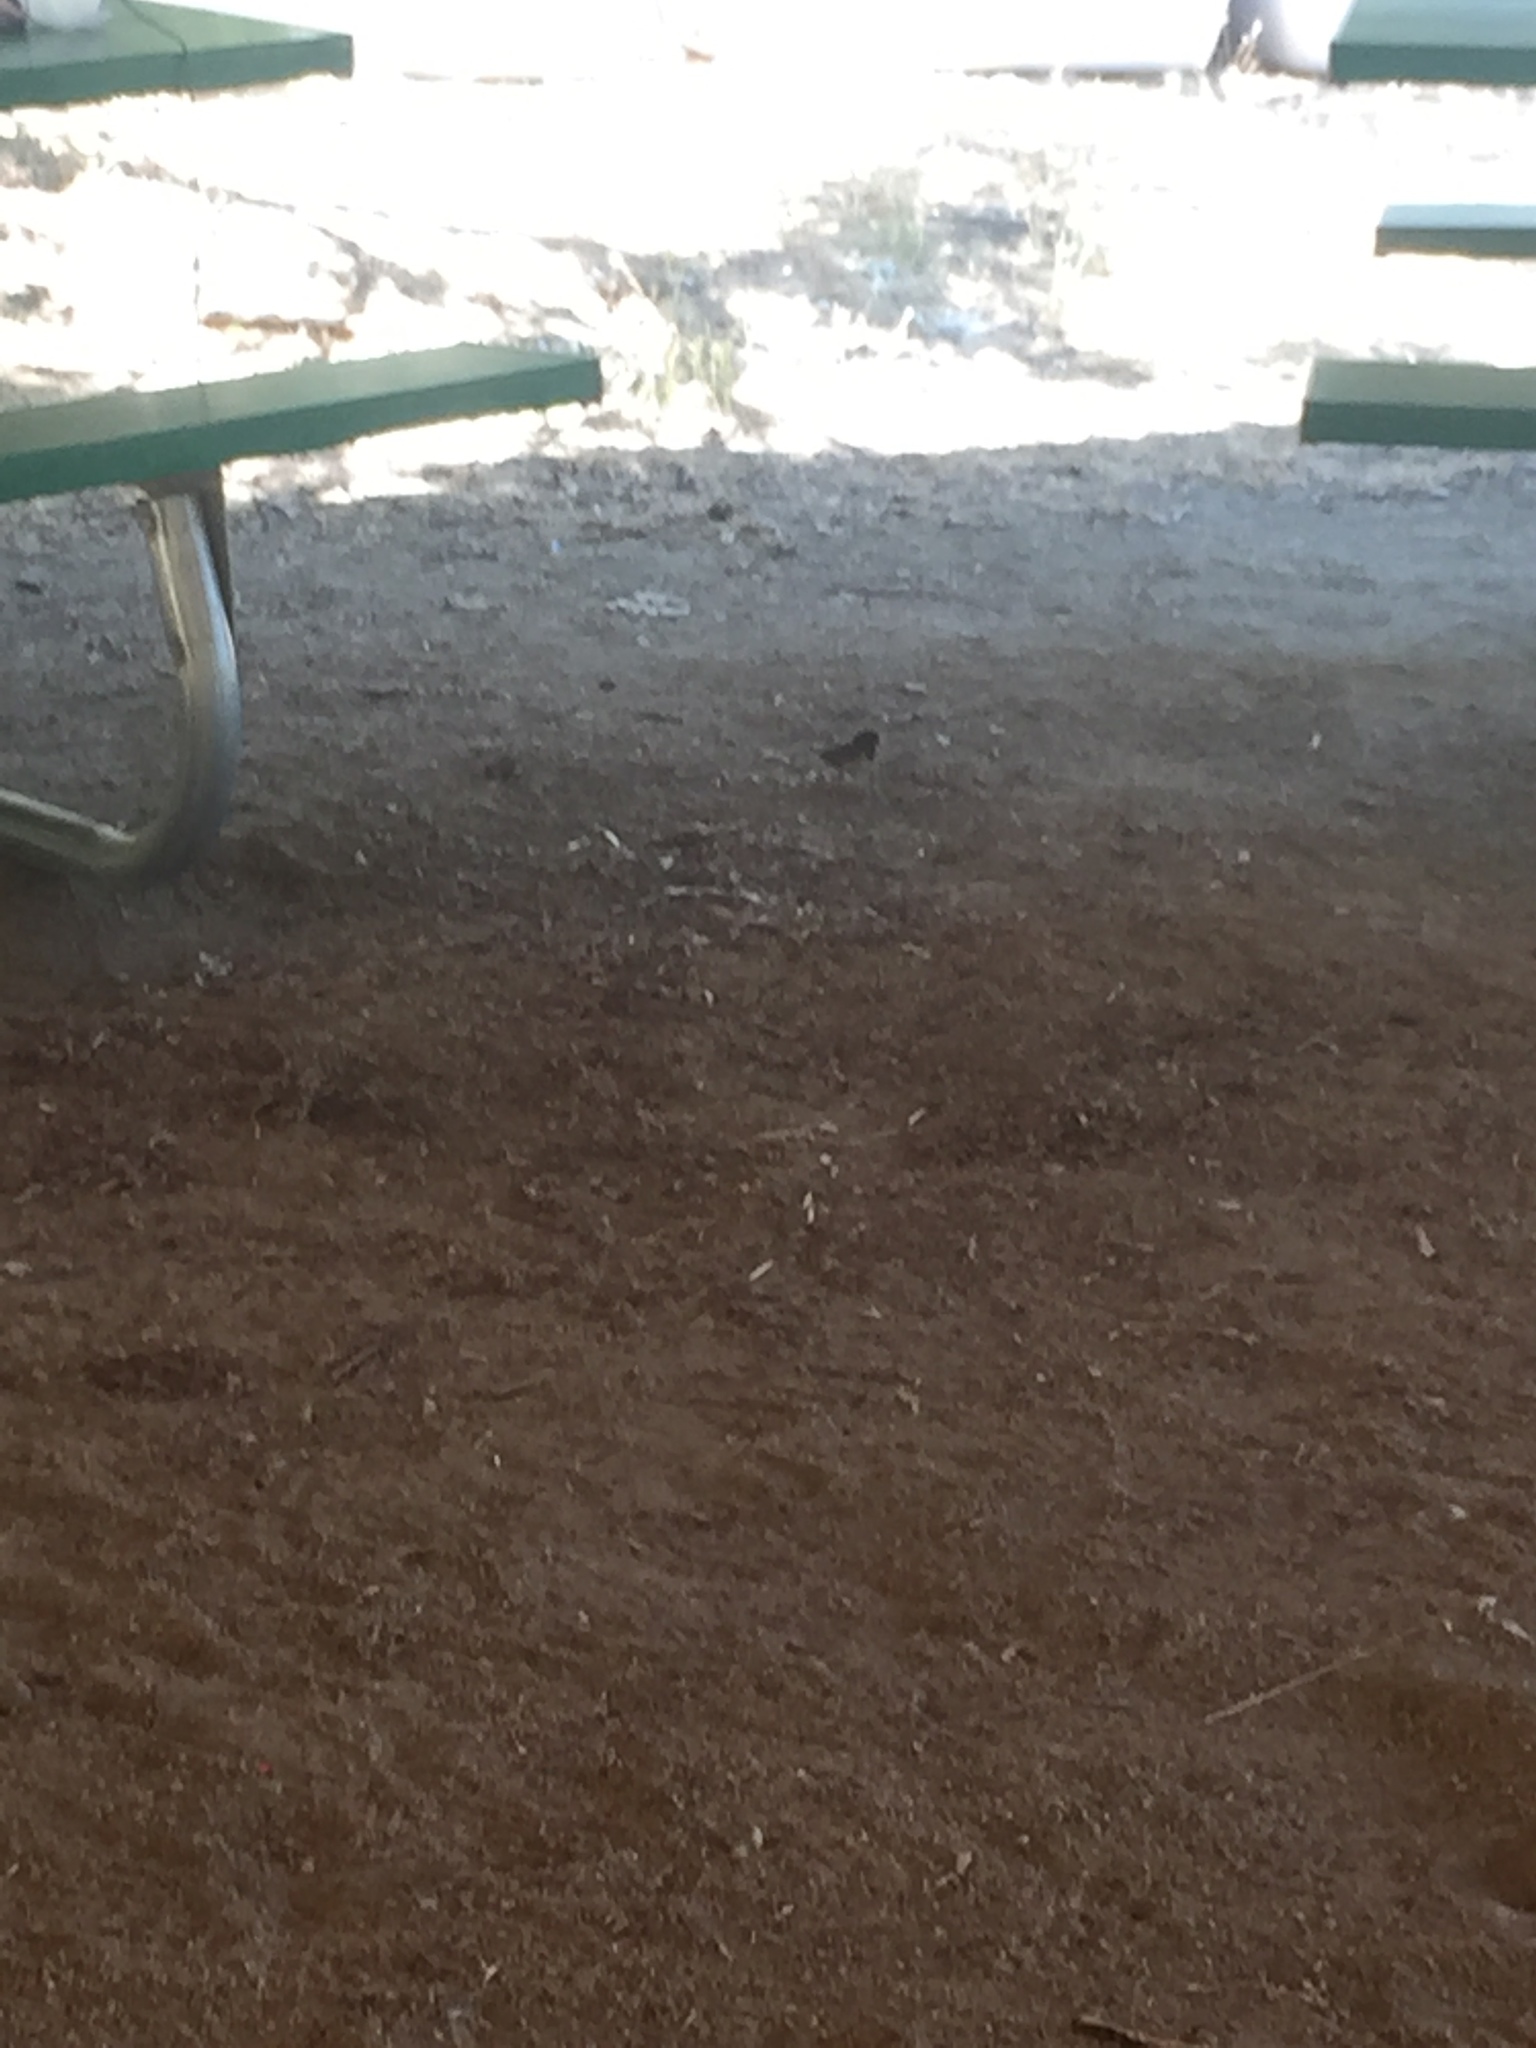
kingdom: Animalia
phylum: Chordata
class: Aves
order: Passeriformes
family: Passerellidae
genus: Junco
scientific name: Junco hyemalis
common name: Dark-eyed junco
